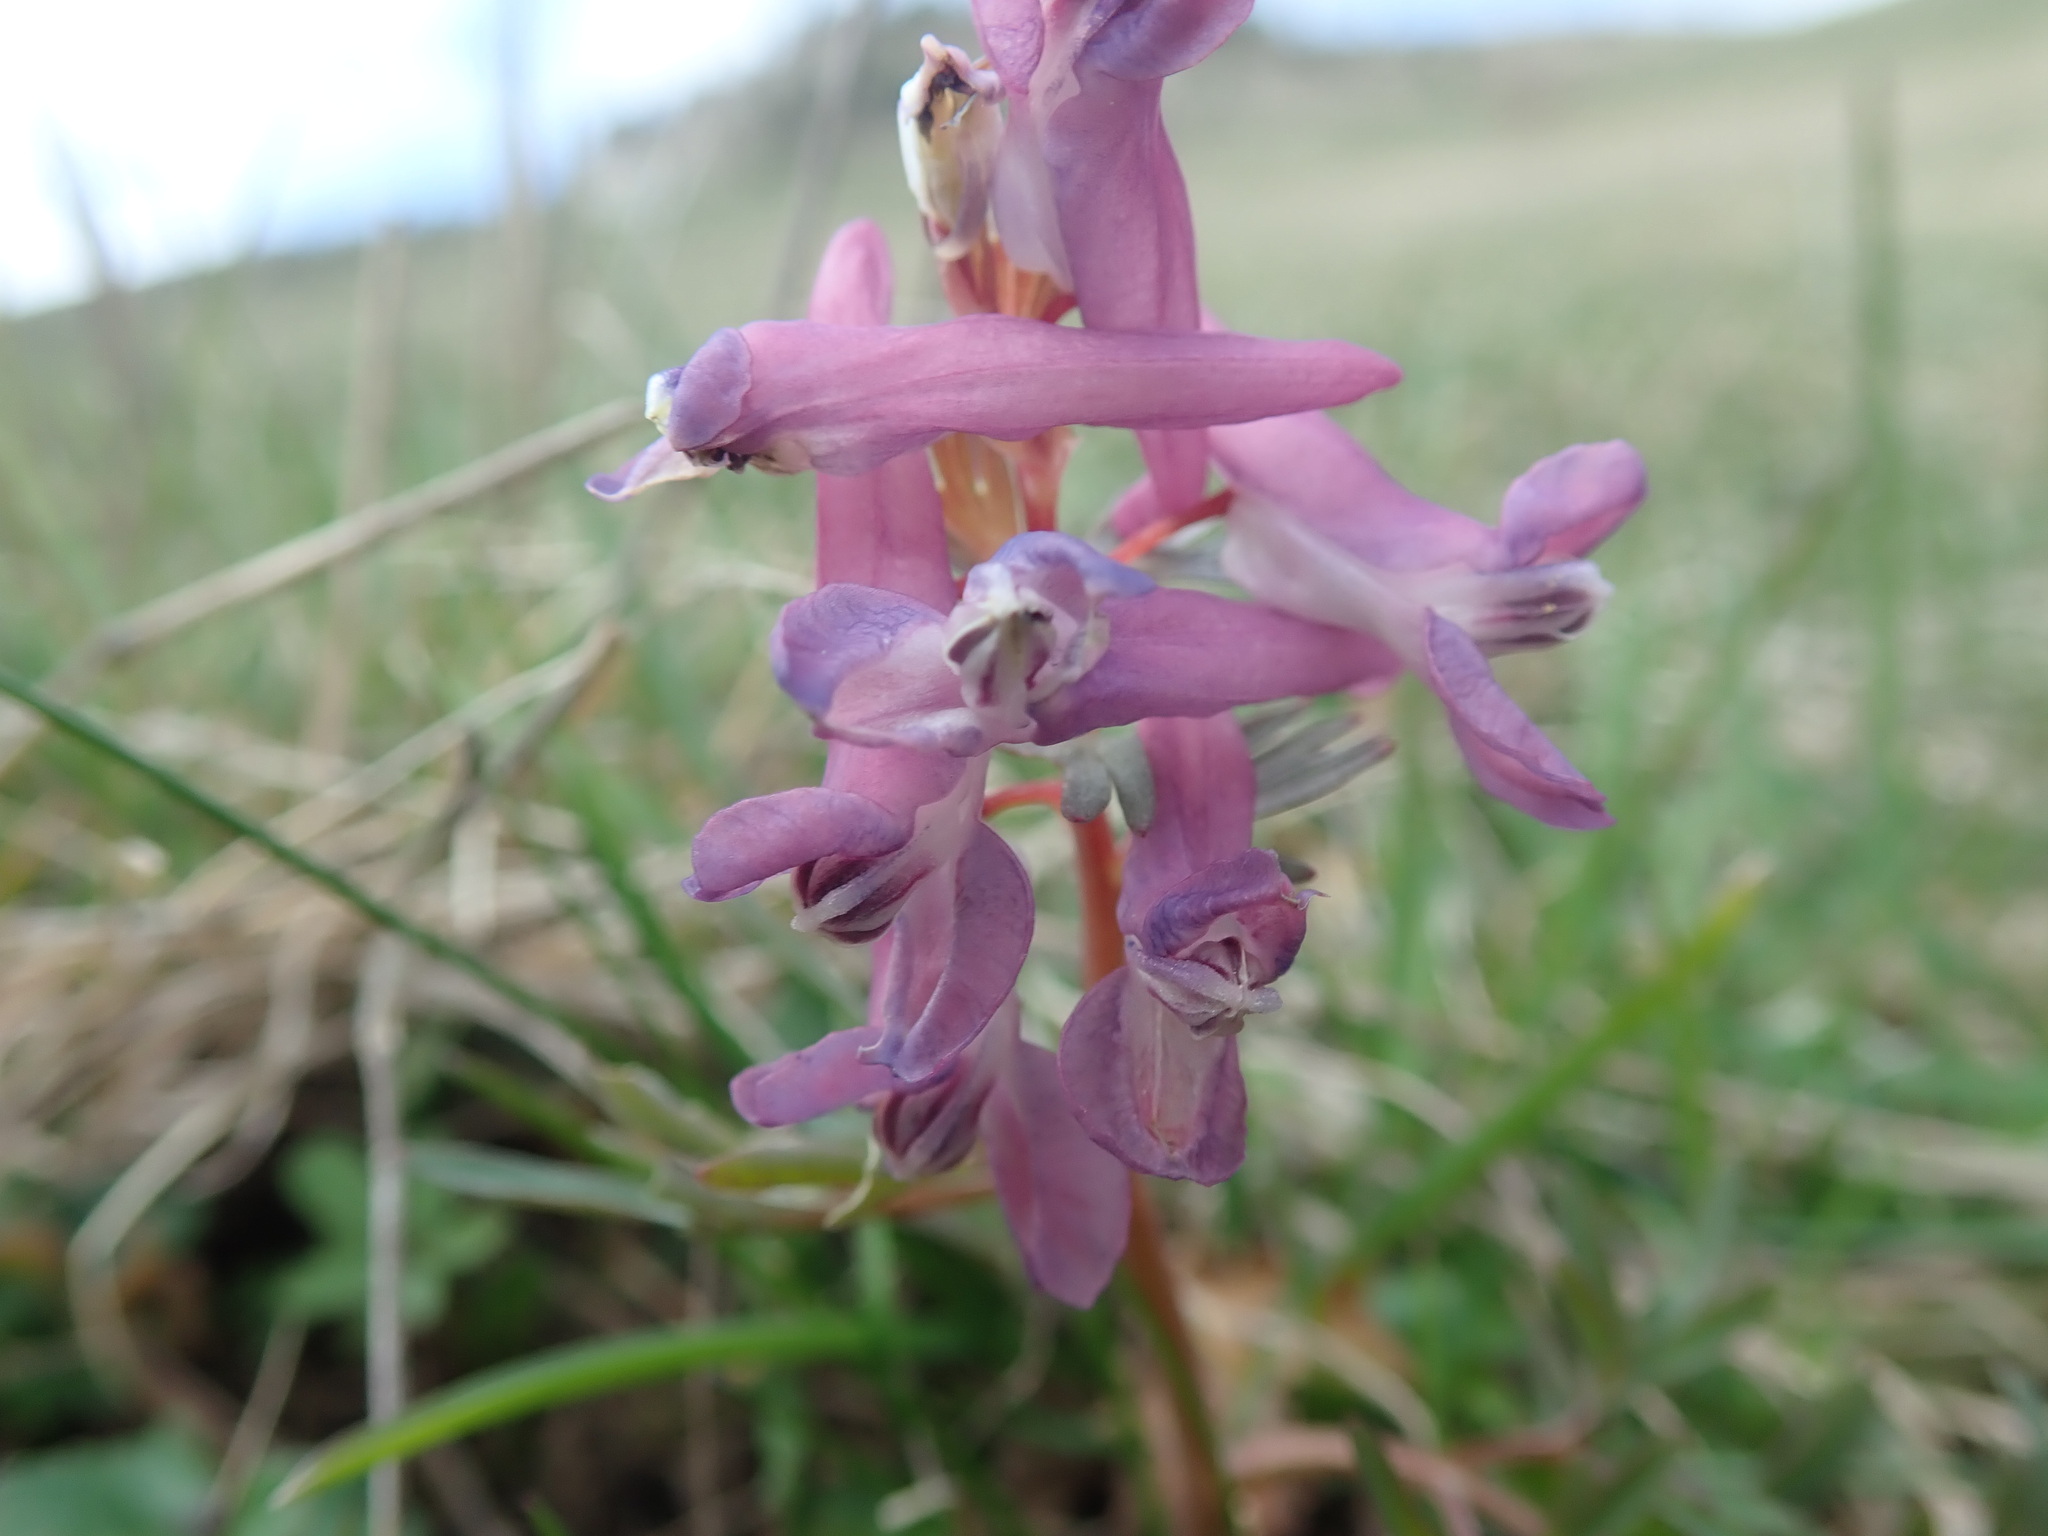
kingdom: Plantae
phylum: Tracheophyta
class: Magnoliopsida
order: Ranunculales
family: Papaveraceae
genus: Corydalis
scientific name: Corydalis solida
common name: Bird-in-a-bush
